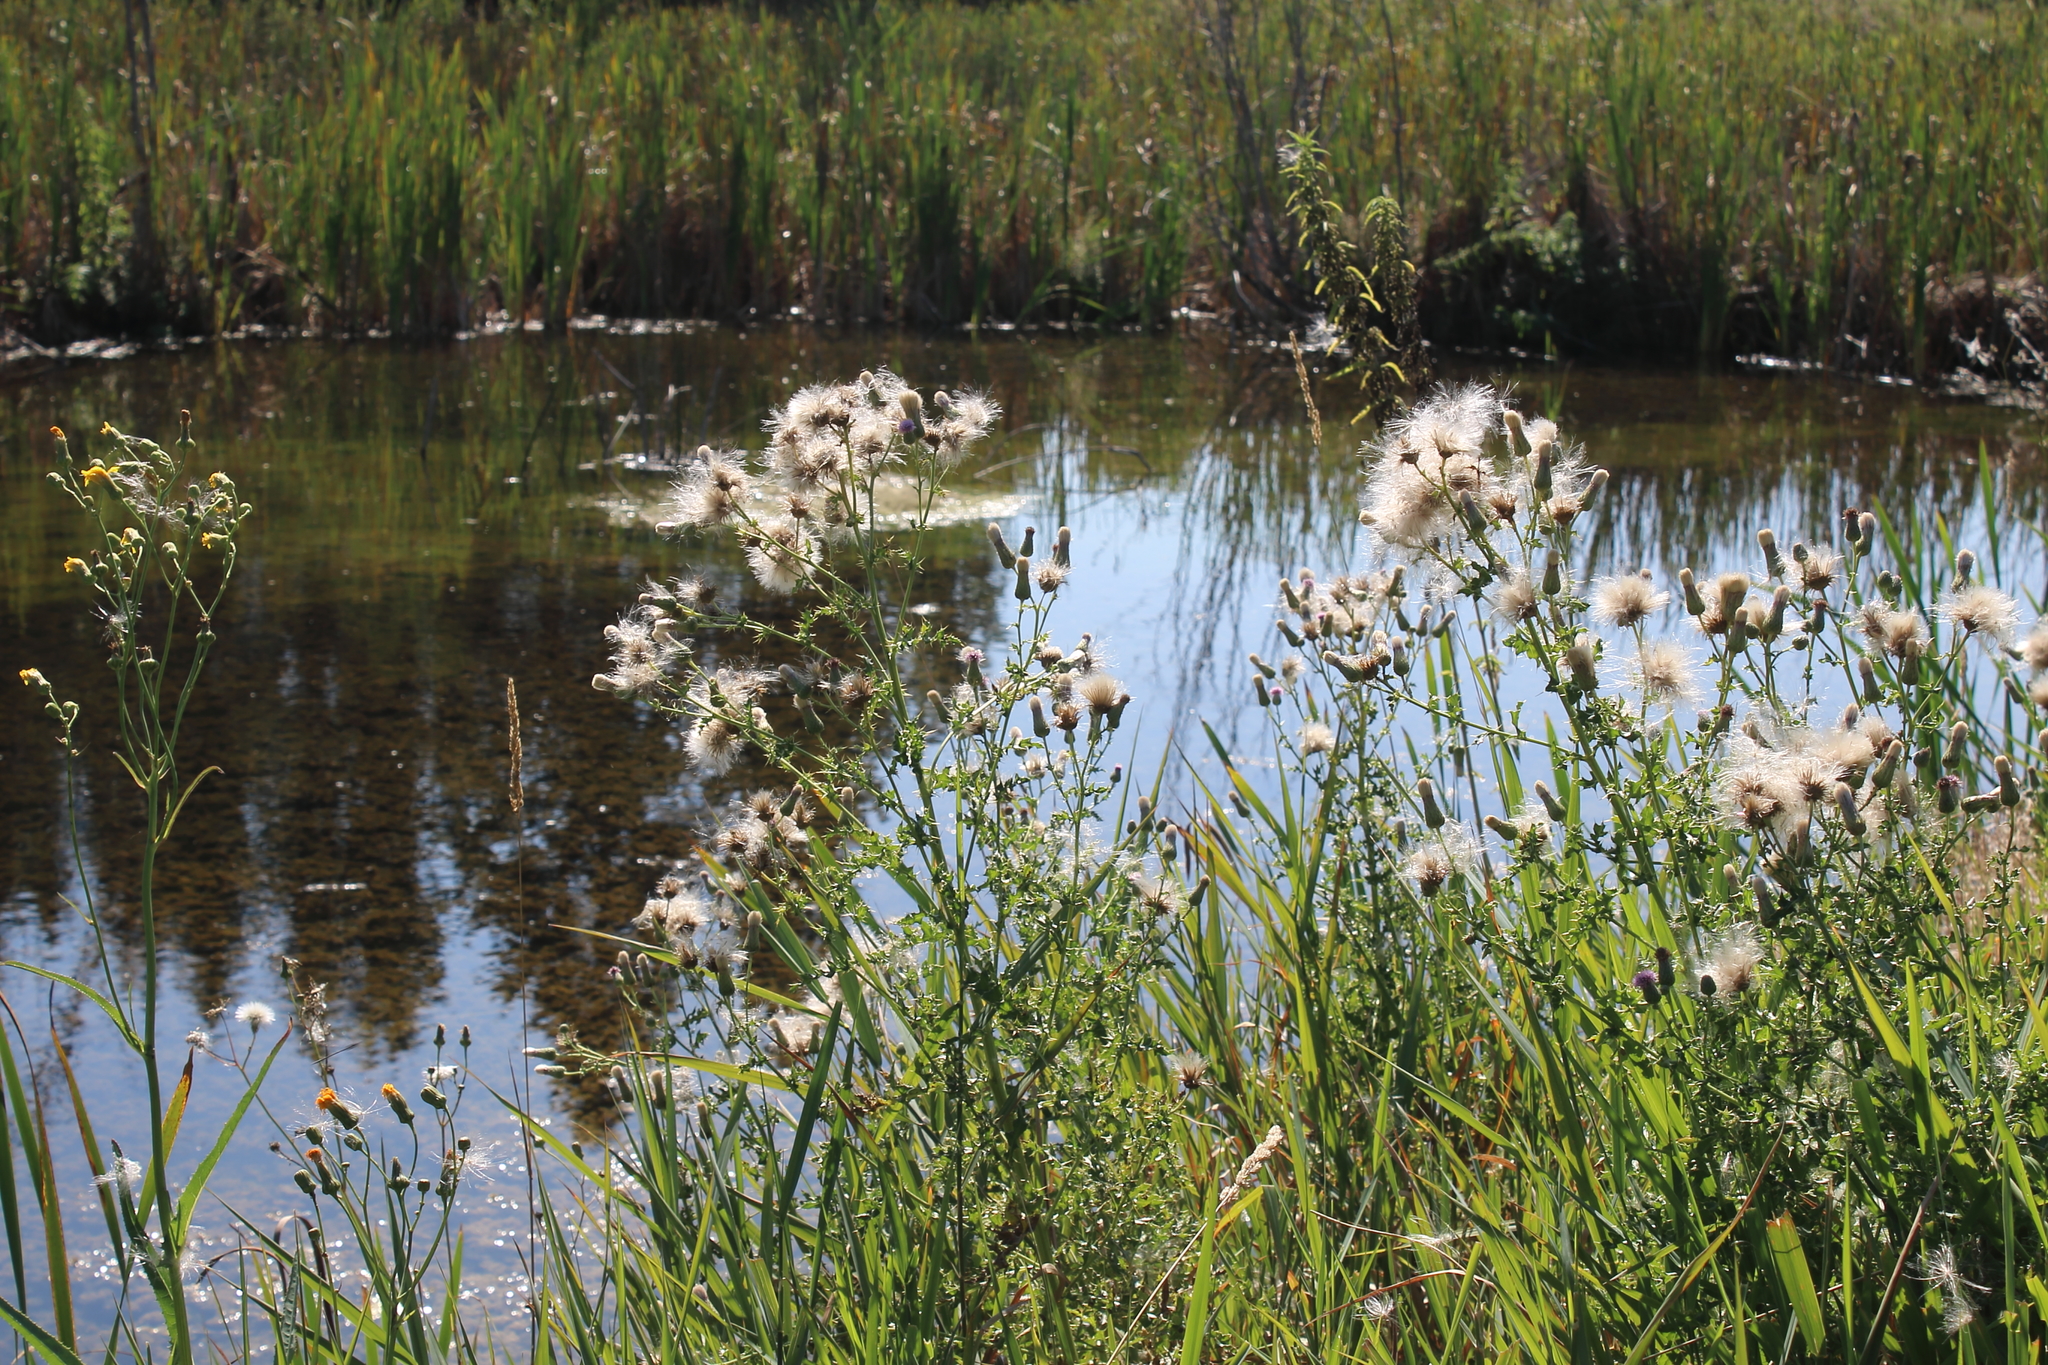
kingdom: Plantae
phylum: Tracheophyta
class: Magnoliopsida
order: Asterales
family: Asteraceae
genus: Cirsium
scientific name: Cirsium arvense
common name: Creeping thistle
